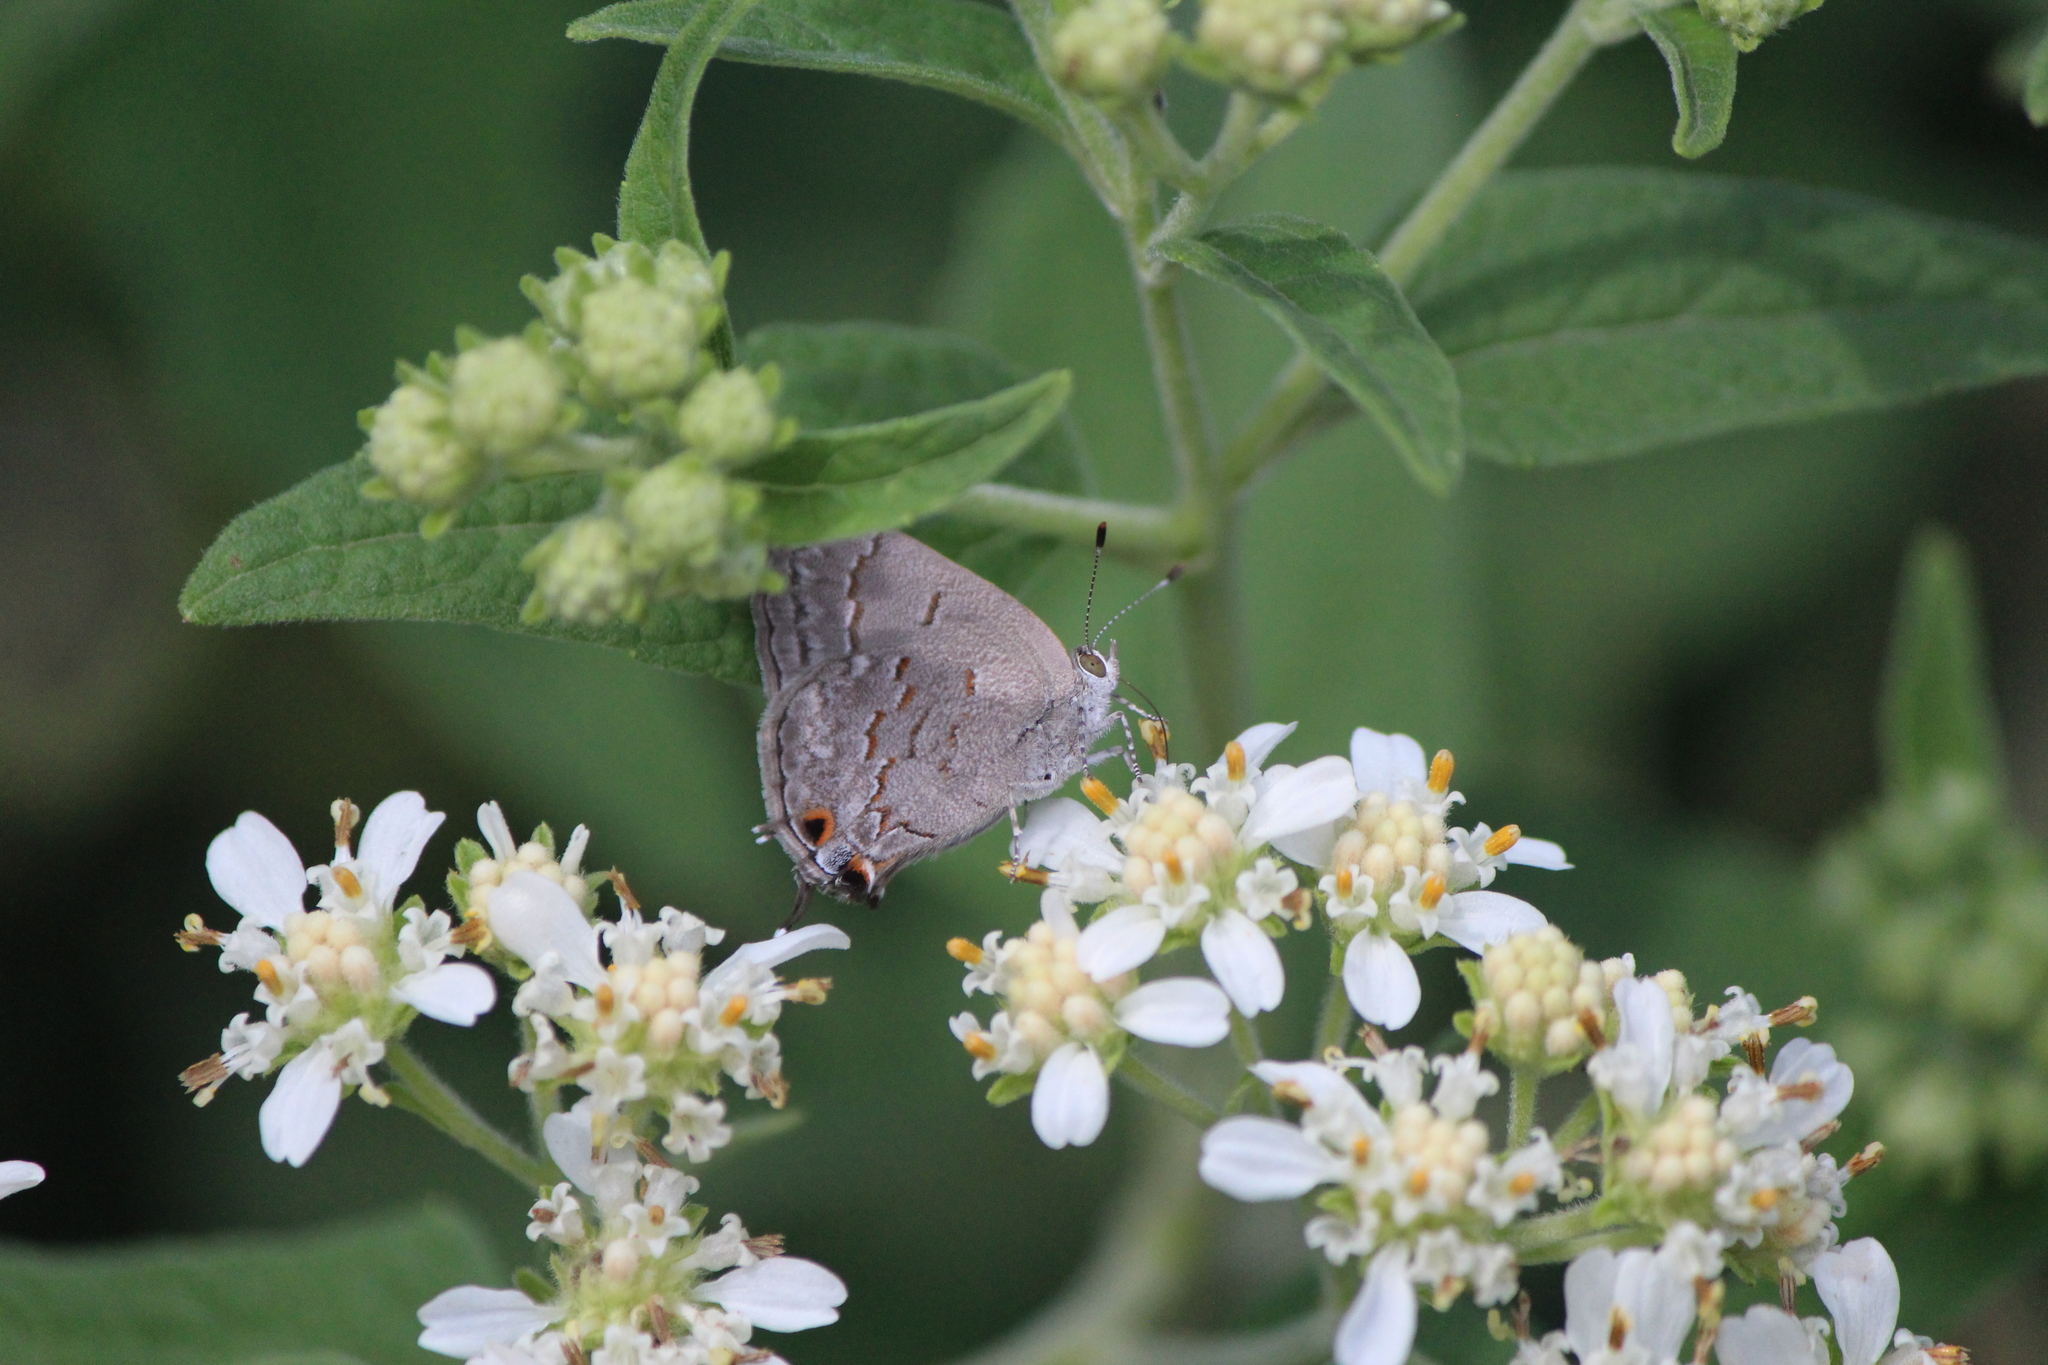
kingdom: Animalia
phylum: Arthropoda
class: Insecta
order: Lepidoptera
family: Lycaenidae
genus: Ministrymon
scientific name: Ministrymon leda
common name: Leda ministreak
